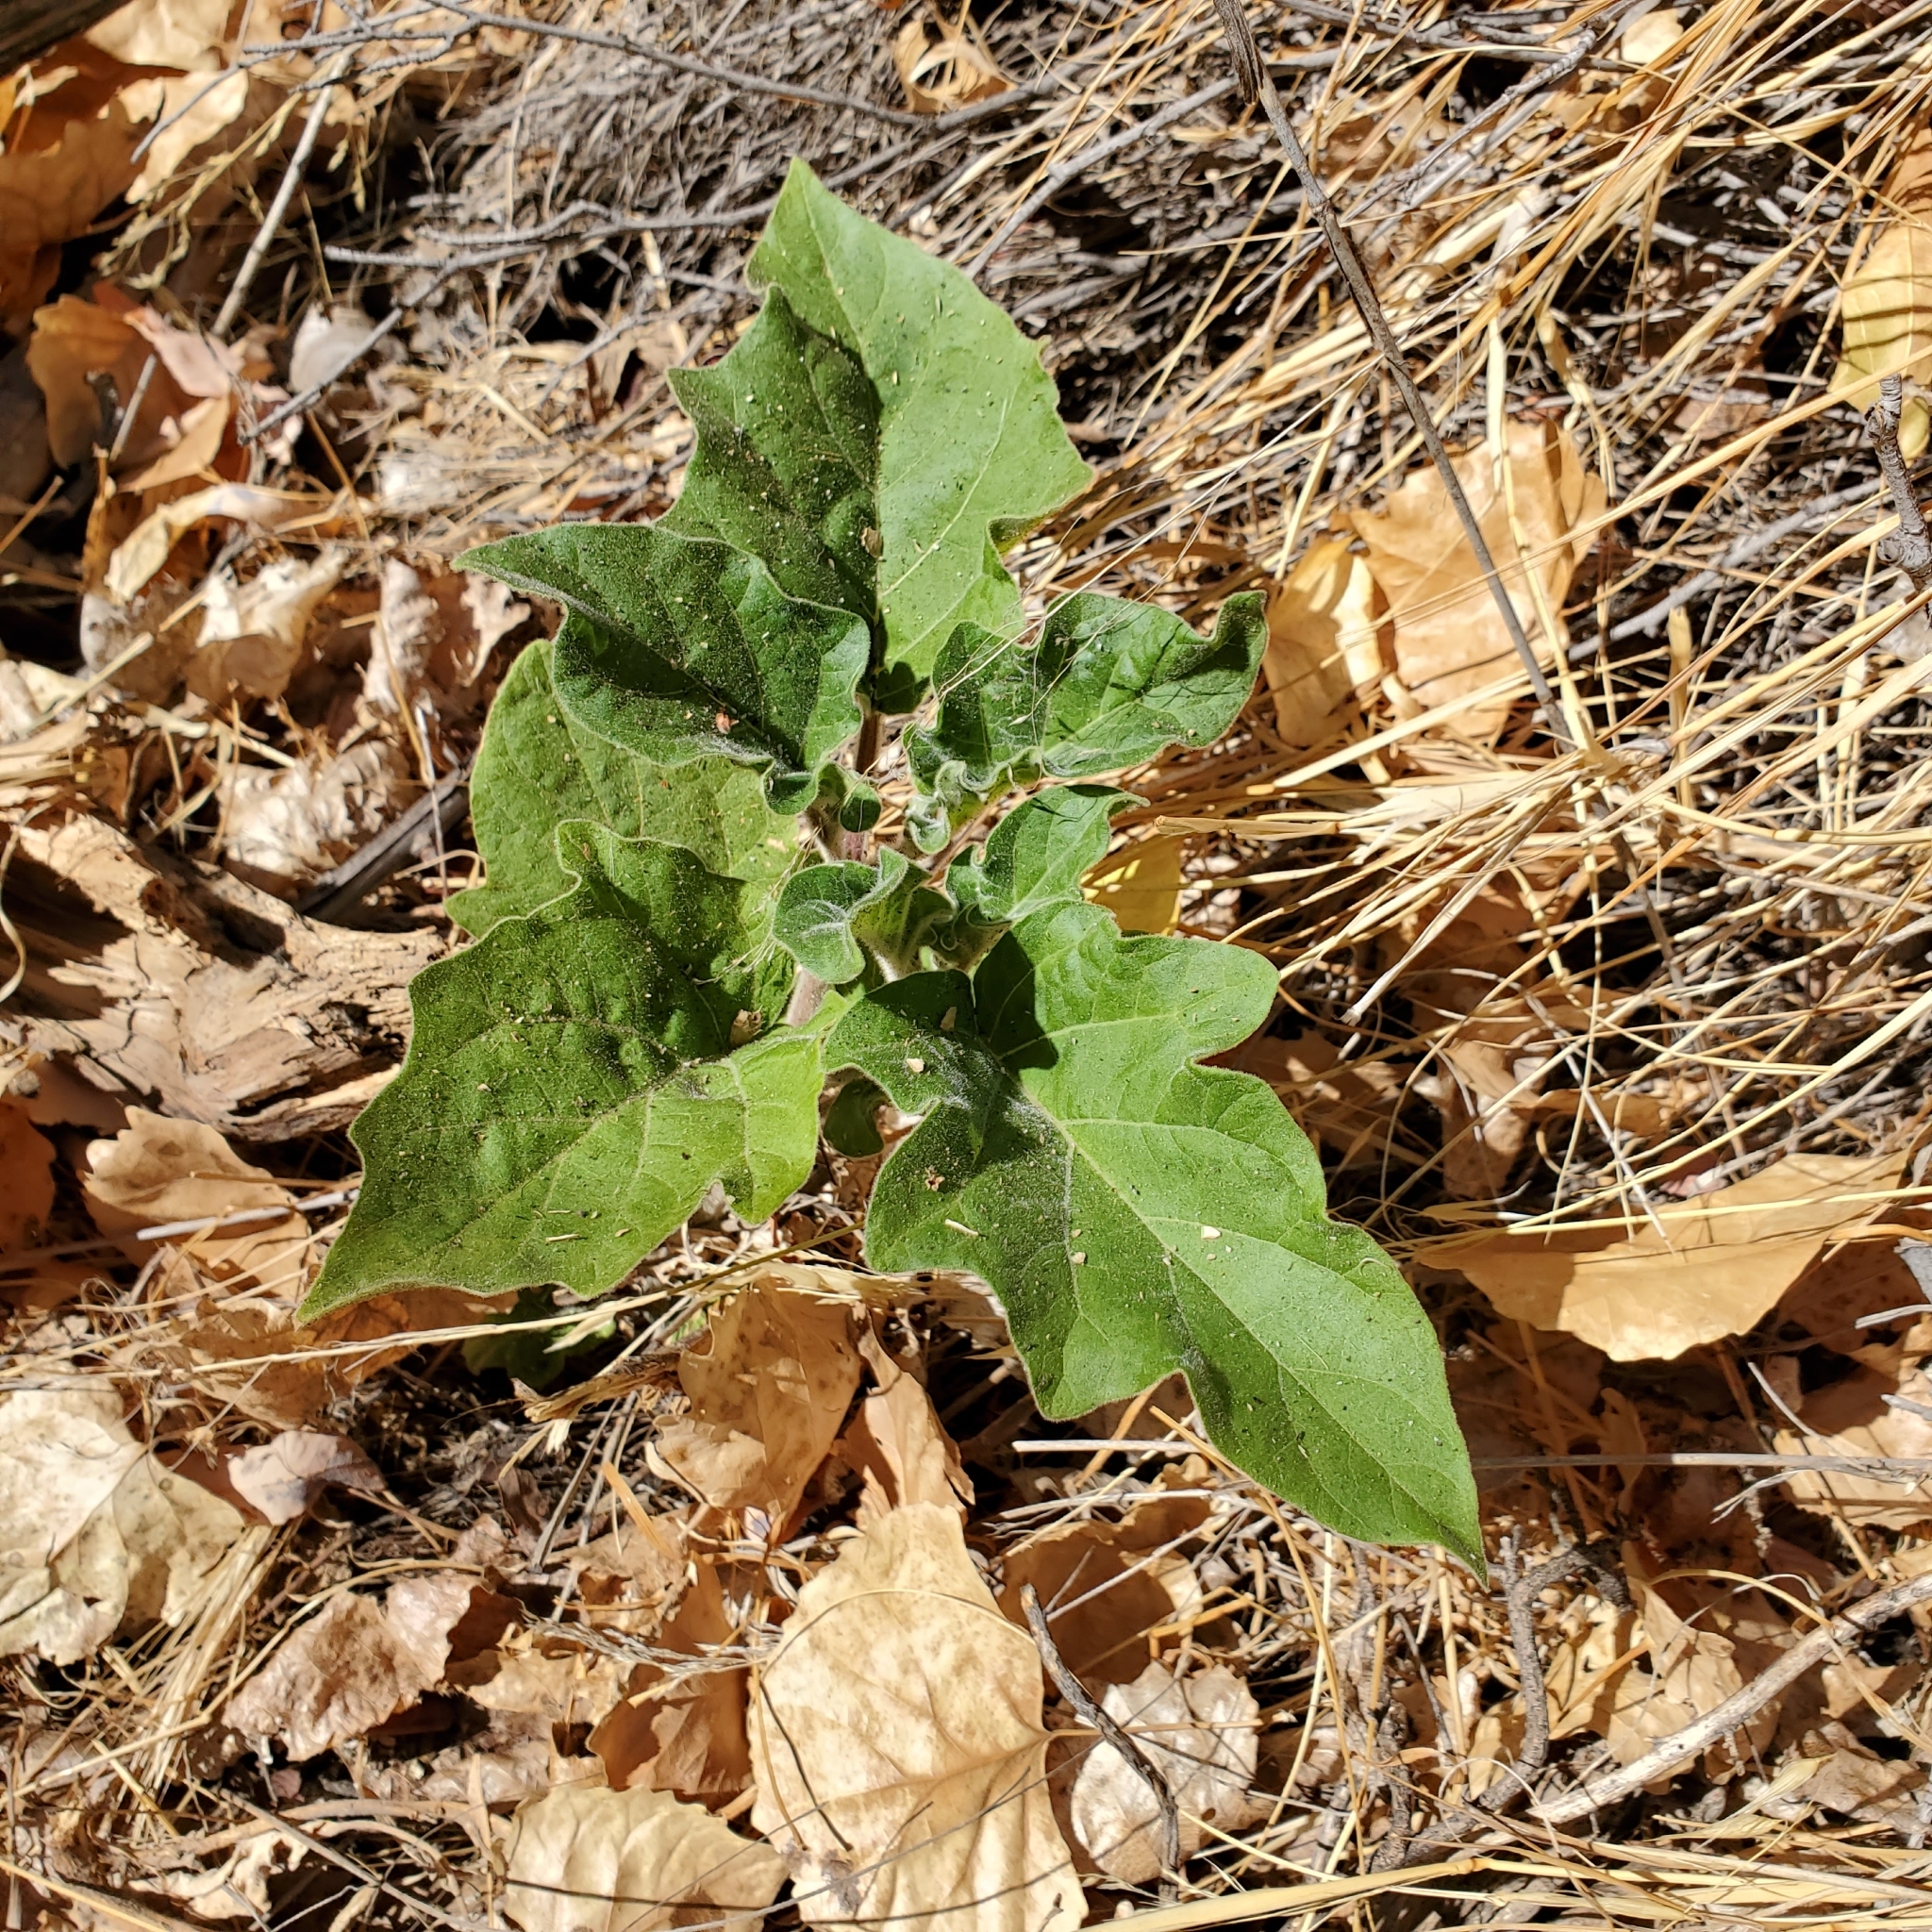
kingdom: Plantae
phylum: Tracheophyta
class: Magnoliopsida
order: Solanales
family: Solanaceae
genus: Datura
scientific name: Datura wrightii
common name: Sacred thorn-apple
